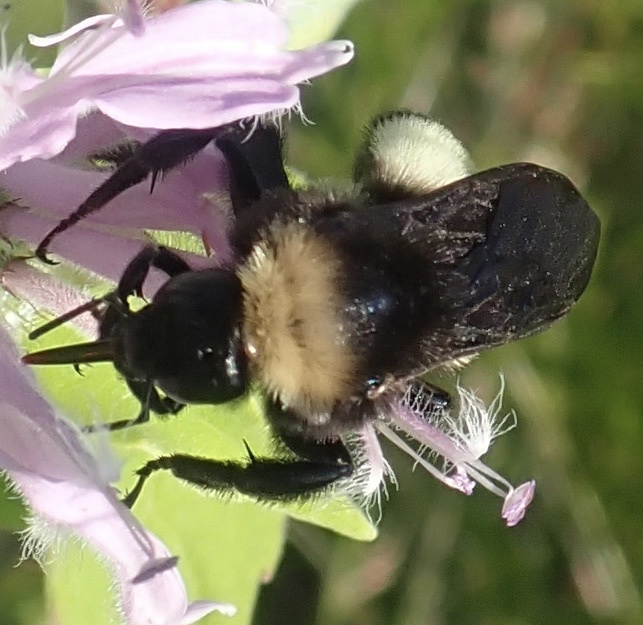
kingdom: Animalia
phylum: Arthropoda
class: Insecta
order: Hymenoptera
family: Apidae
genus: Bombus
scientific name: Bombus pensylvanicus
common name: Bumble bee
